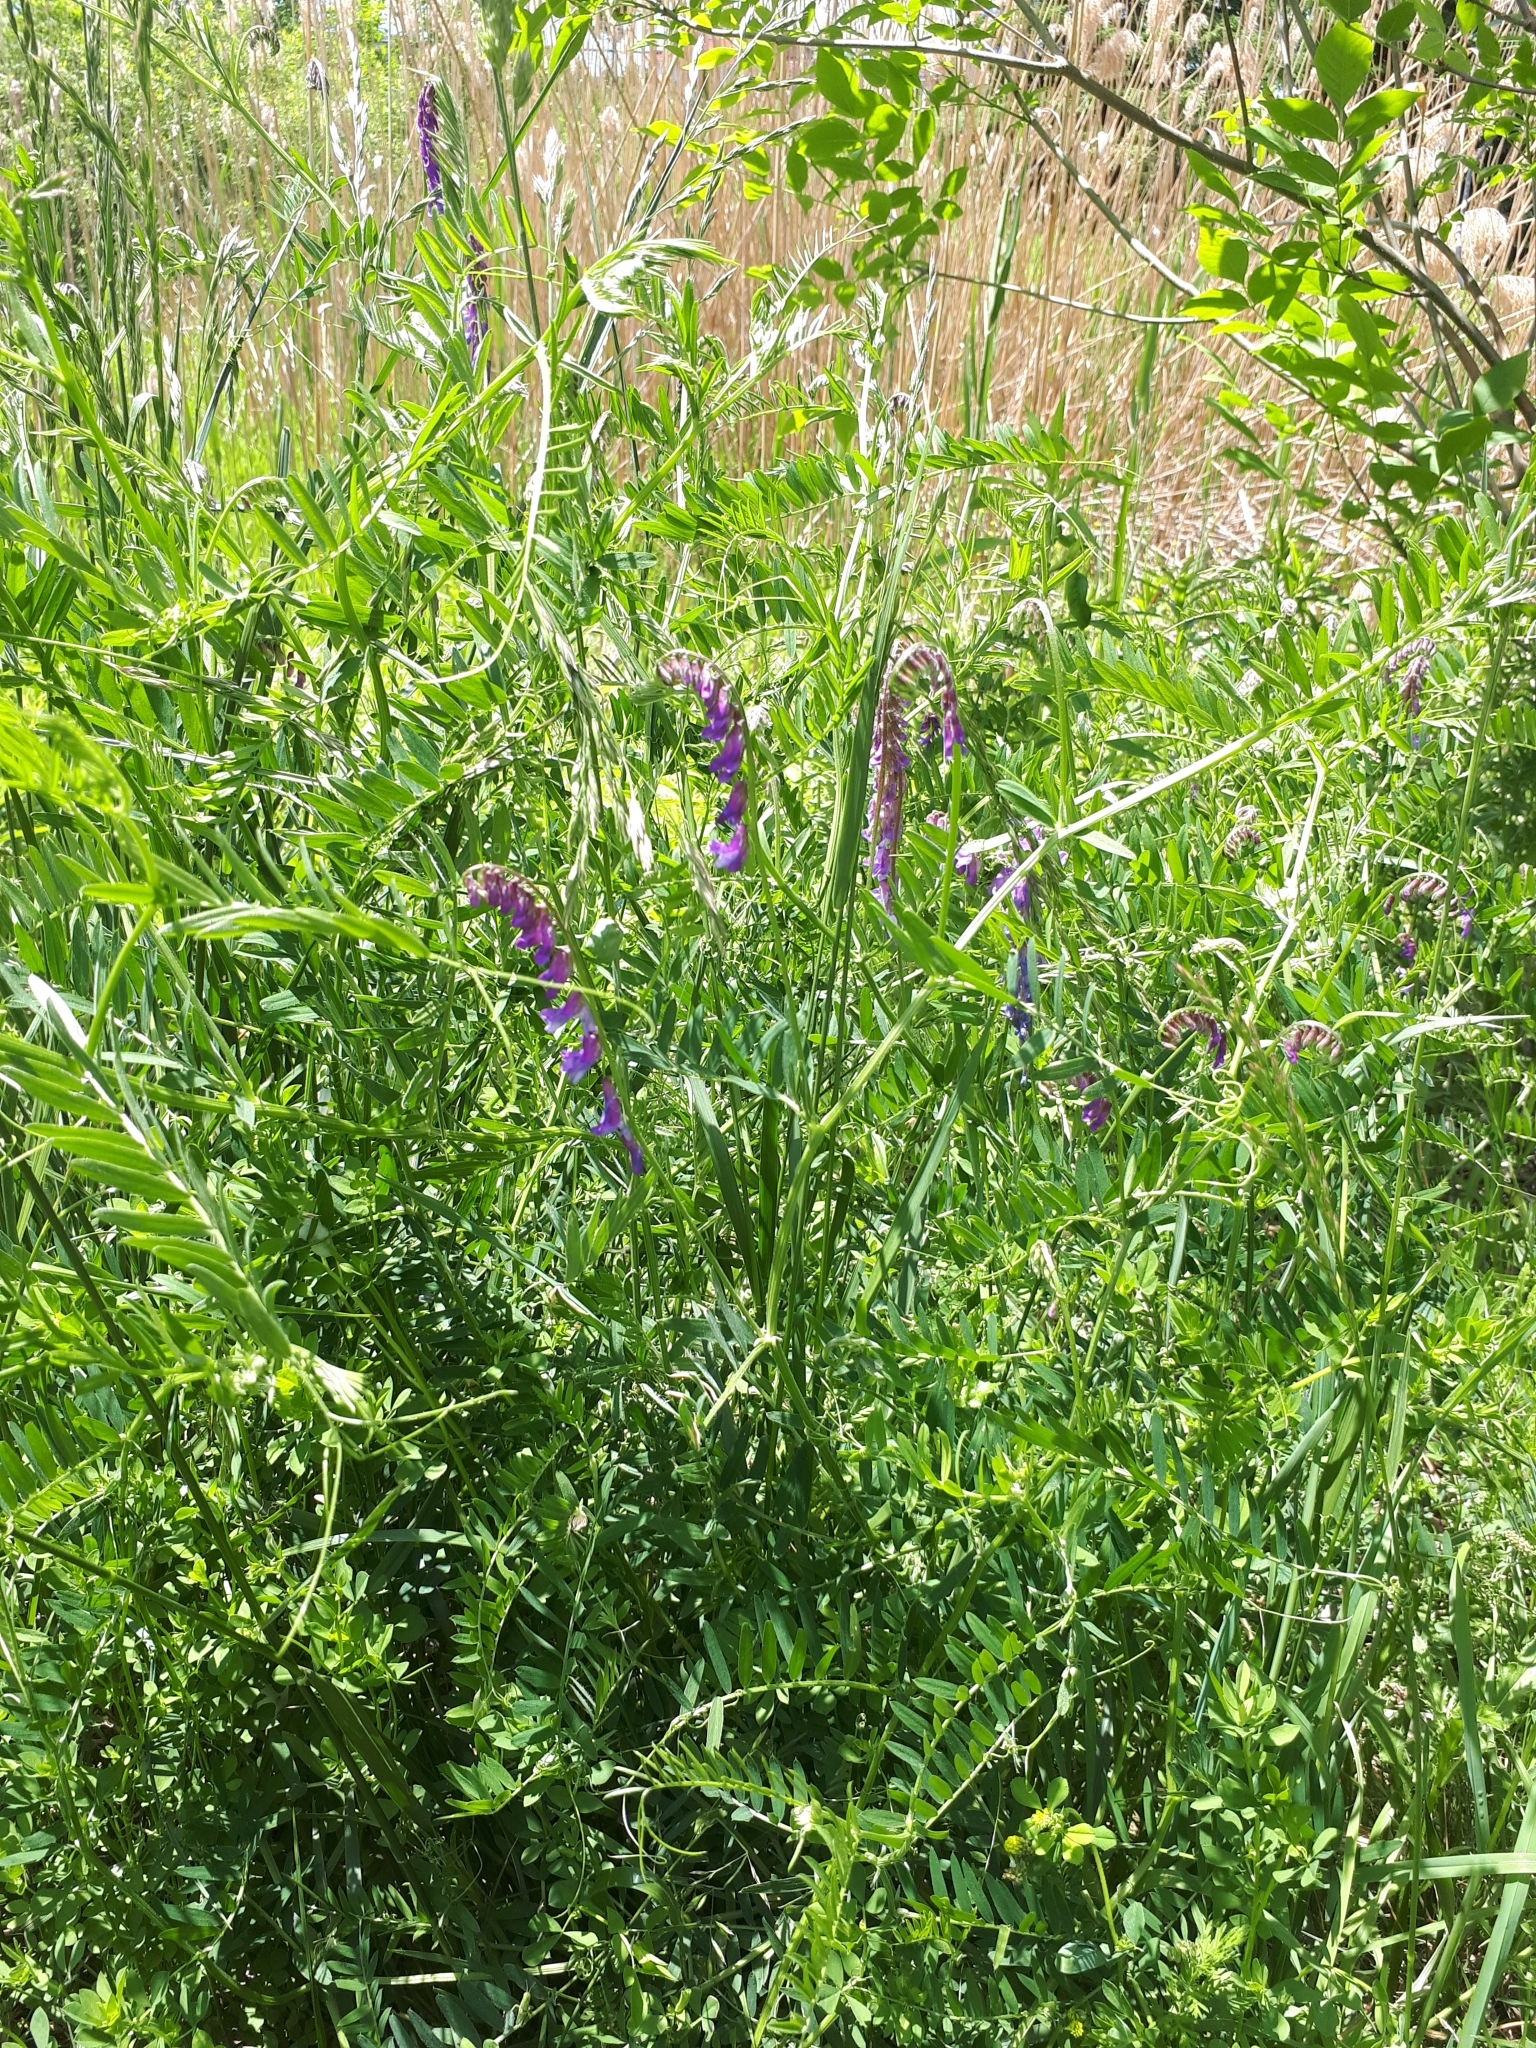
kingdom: Plantae
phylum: Tracheophyta
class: Magnoliopsida
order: Fabales
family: Fabaceae
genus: Vicia
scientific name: Vicia cracca
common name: Bird vetch
